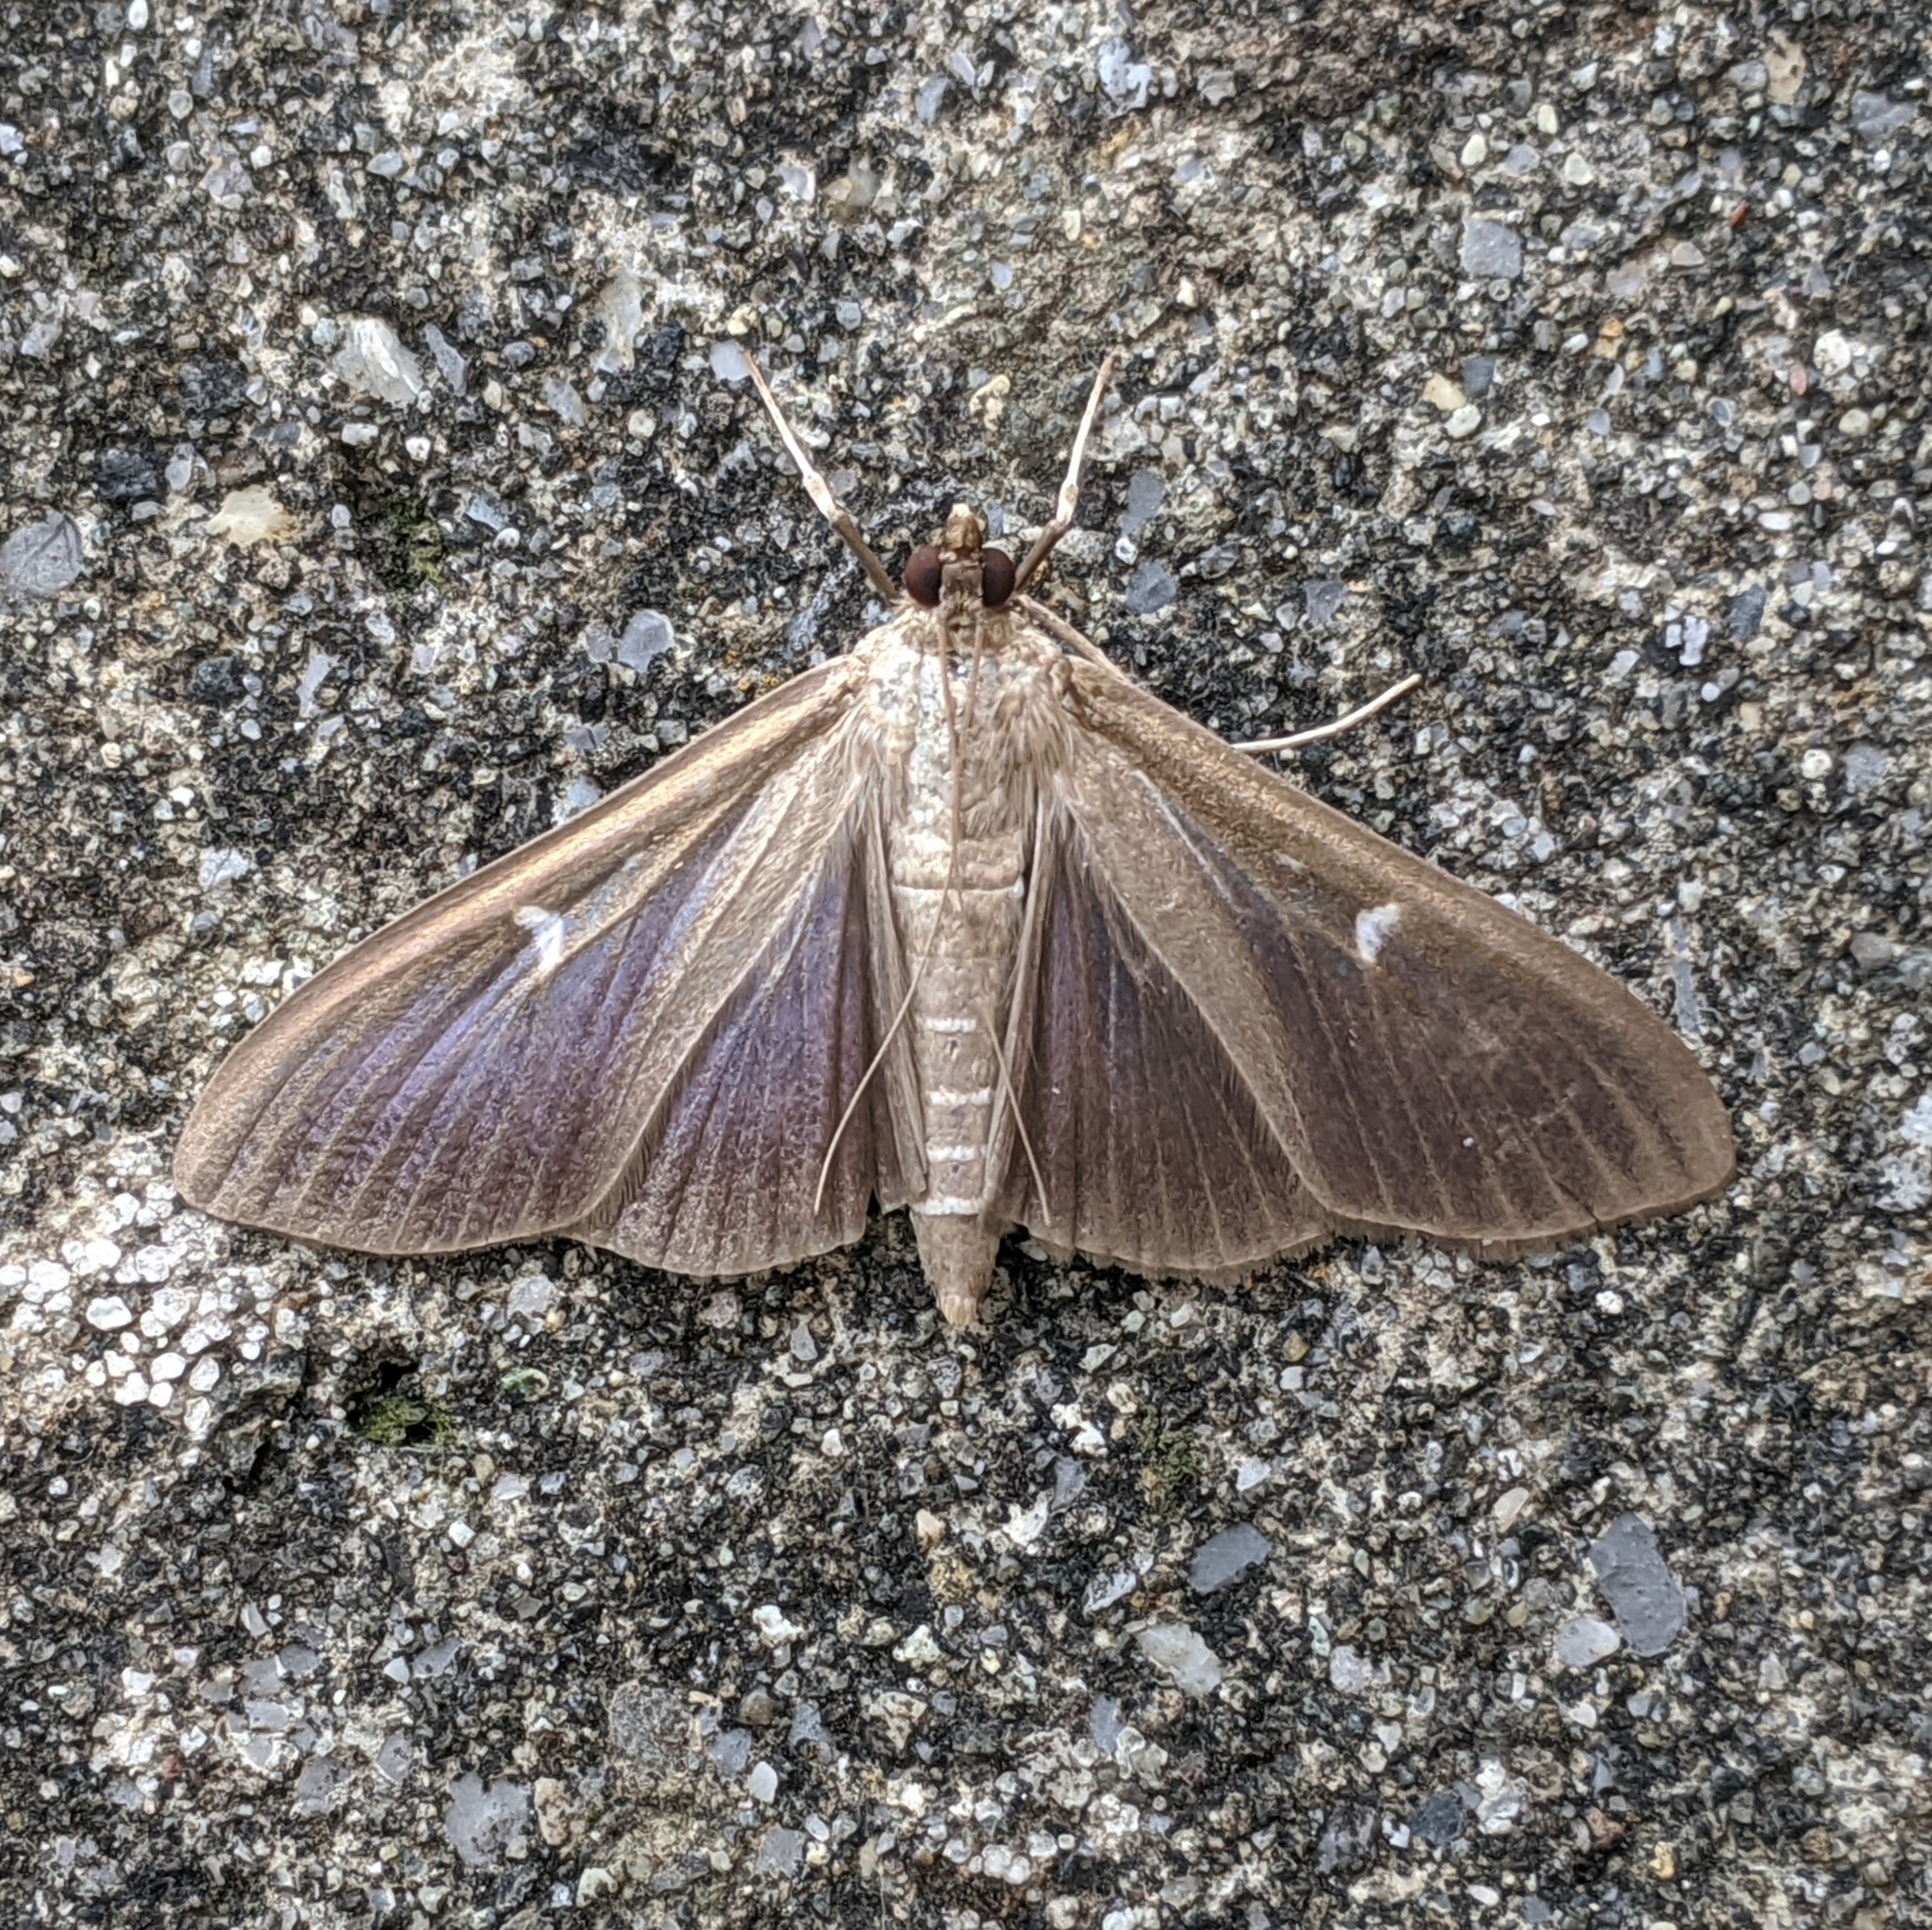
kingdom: Animalia
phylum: Arthropoda
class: Insecta
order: Lepidoptera
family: Crambidae
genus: Cydalima
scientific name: Cydalima perspectalis
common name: Box tree moth
